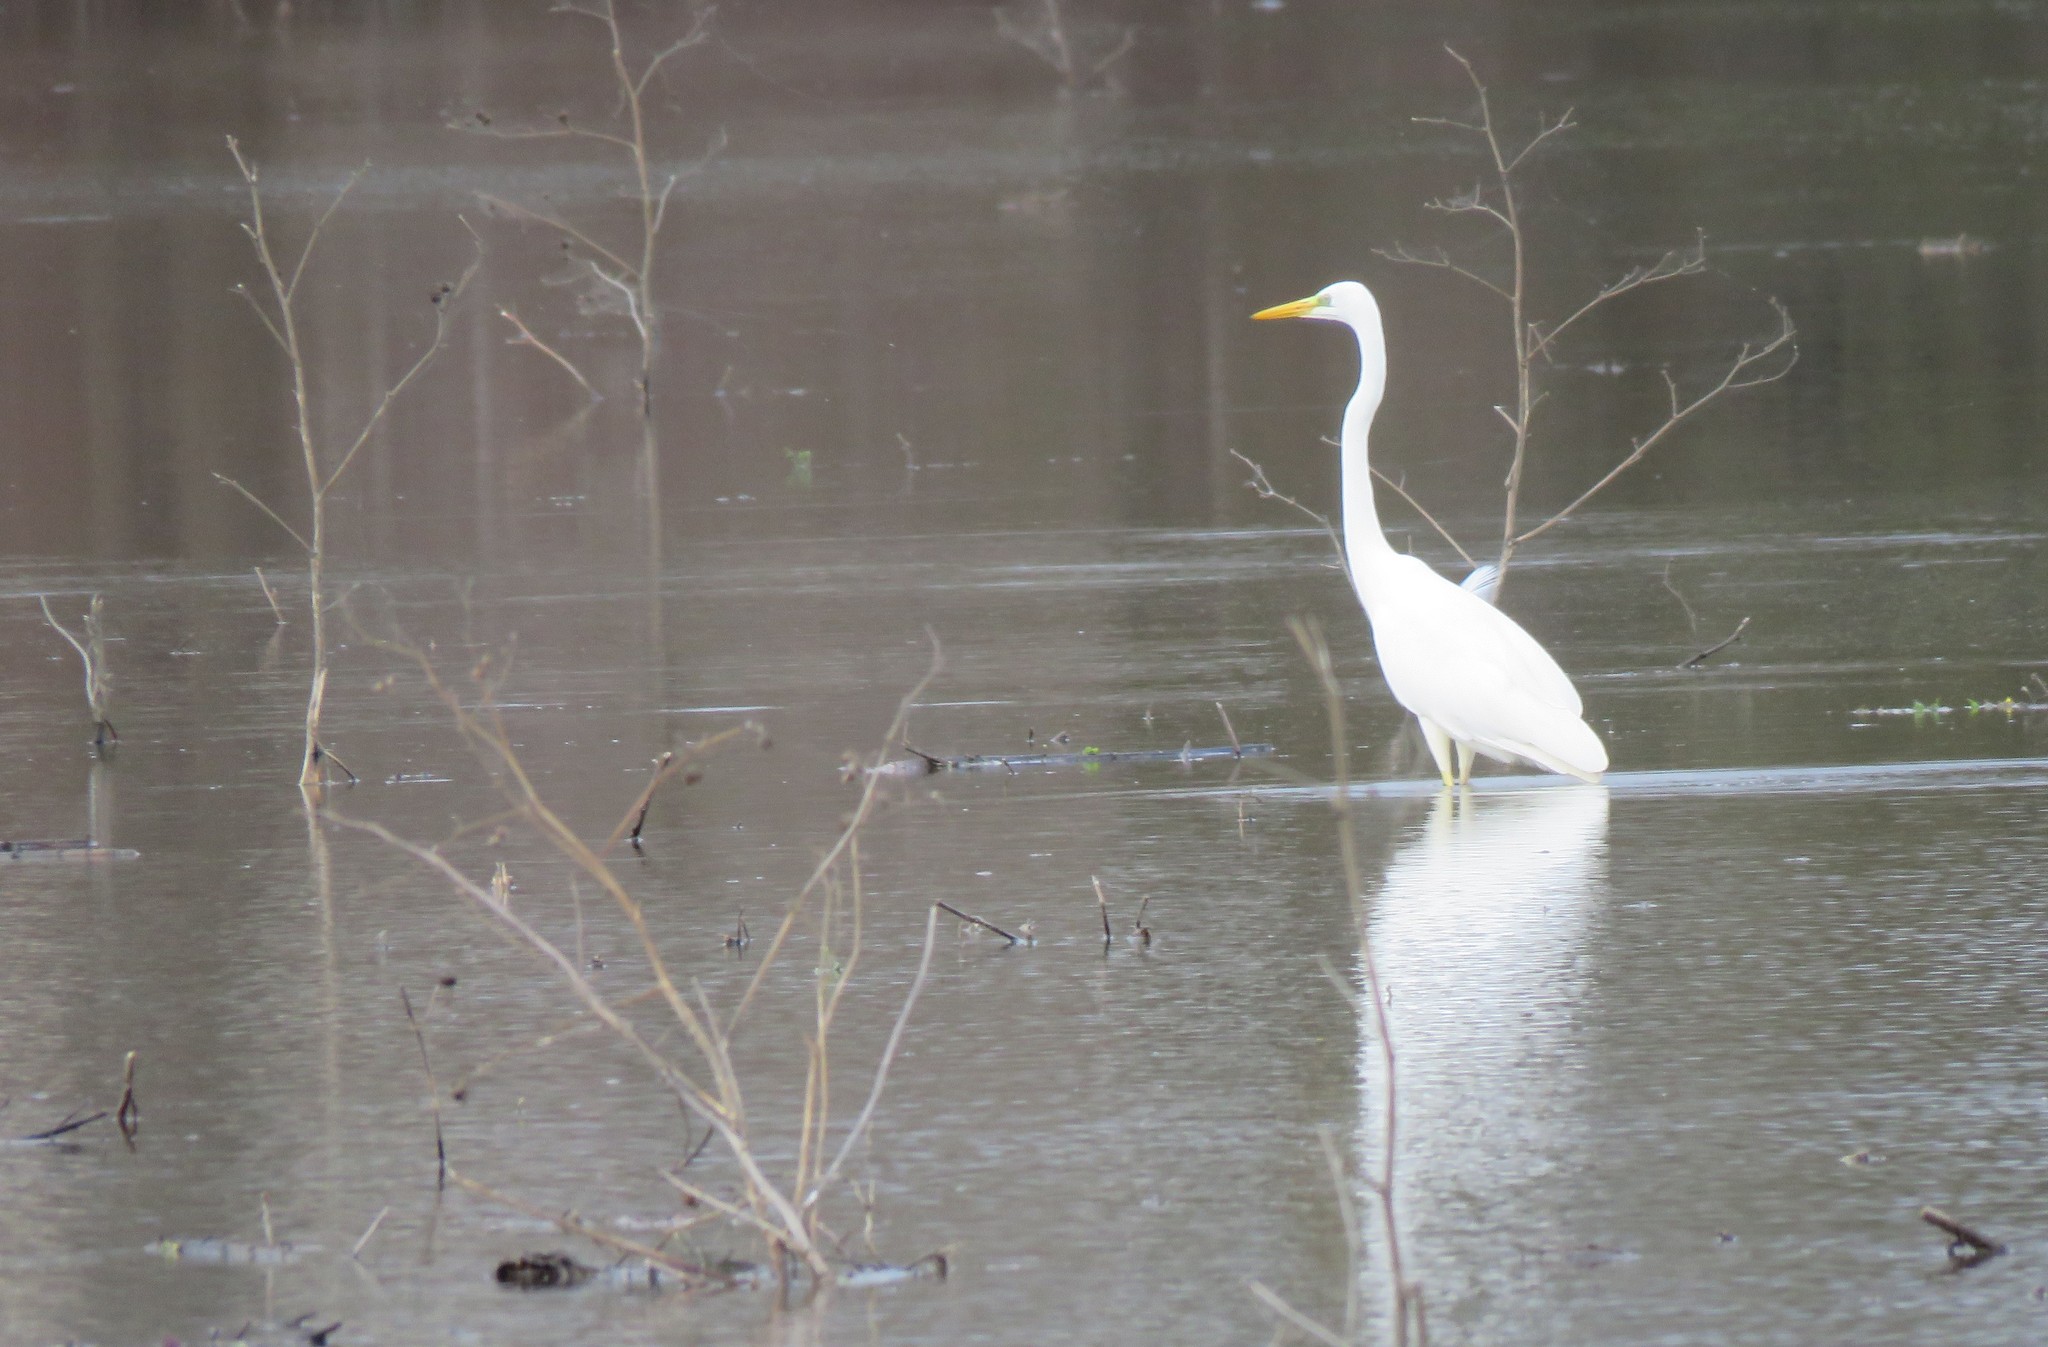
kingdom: Animalia
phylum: Chordata
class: Aves
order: Pelecaniformes
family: Ardeidae
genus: Ardea
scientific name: Ardea alba
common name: Great egret
